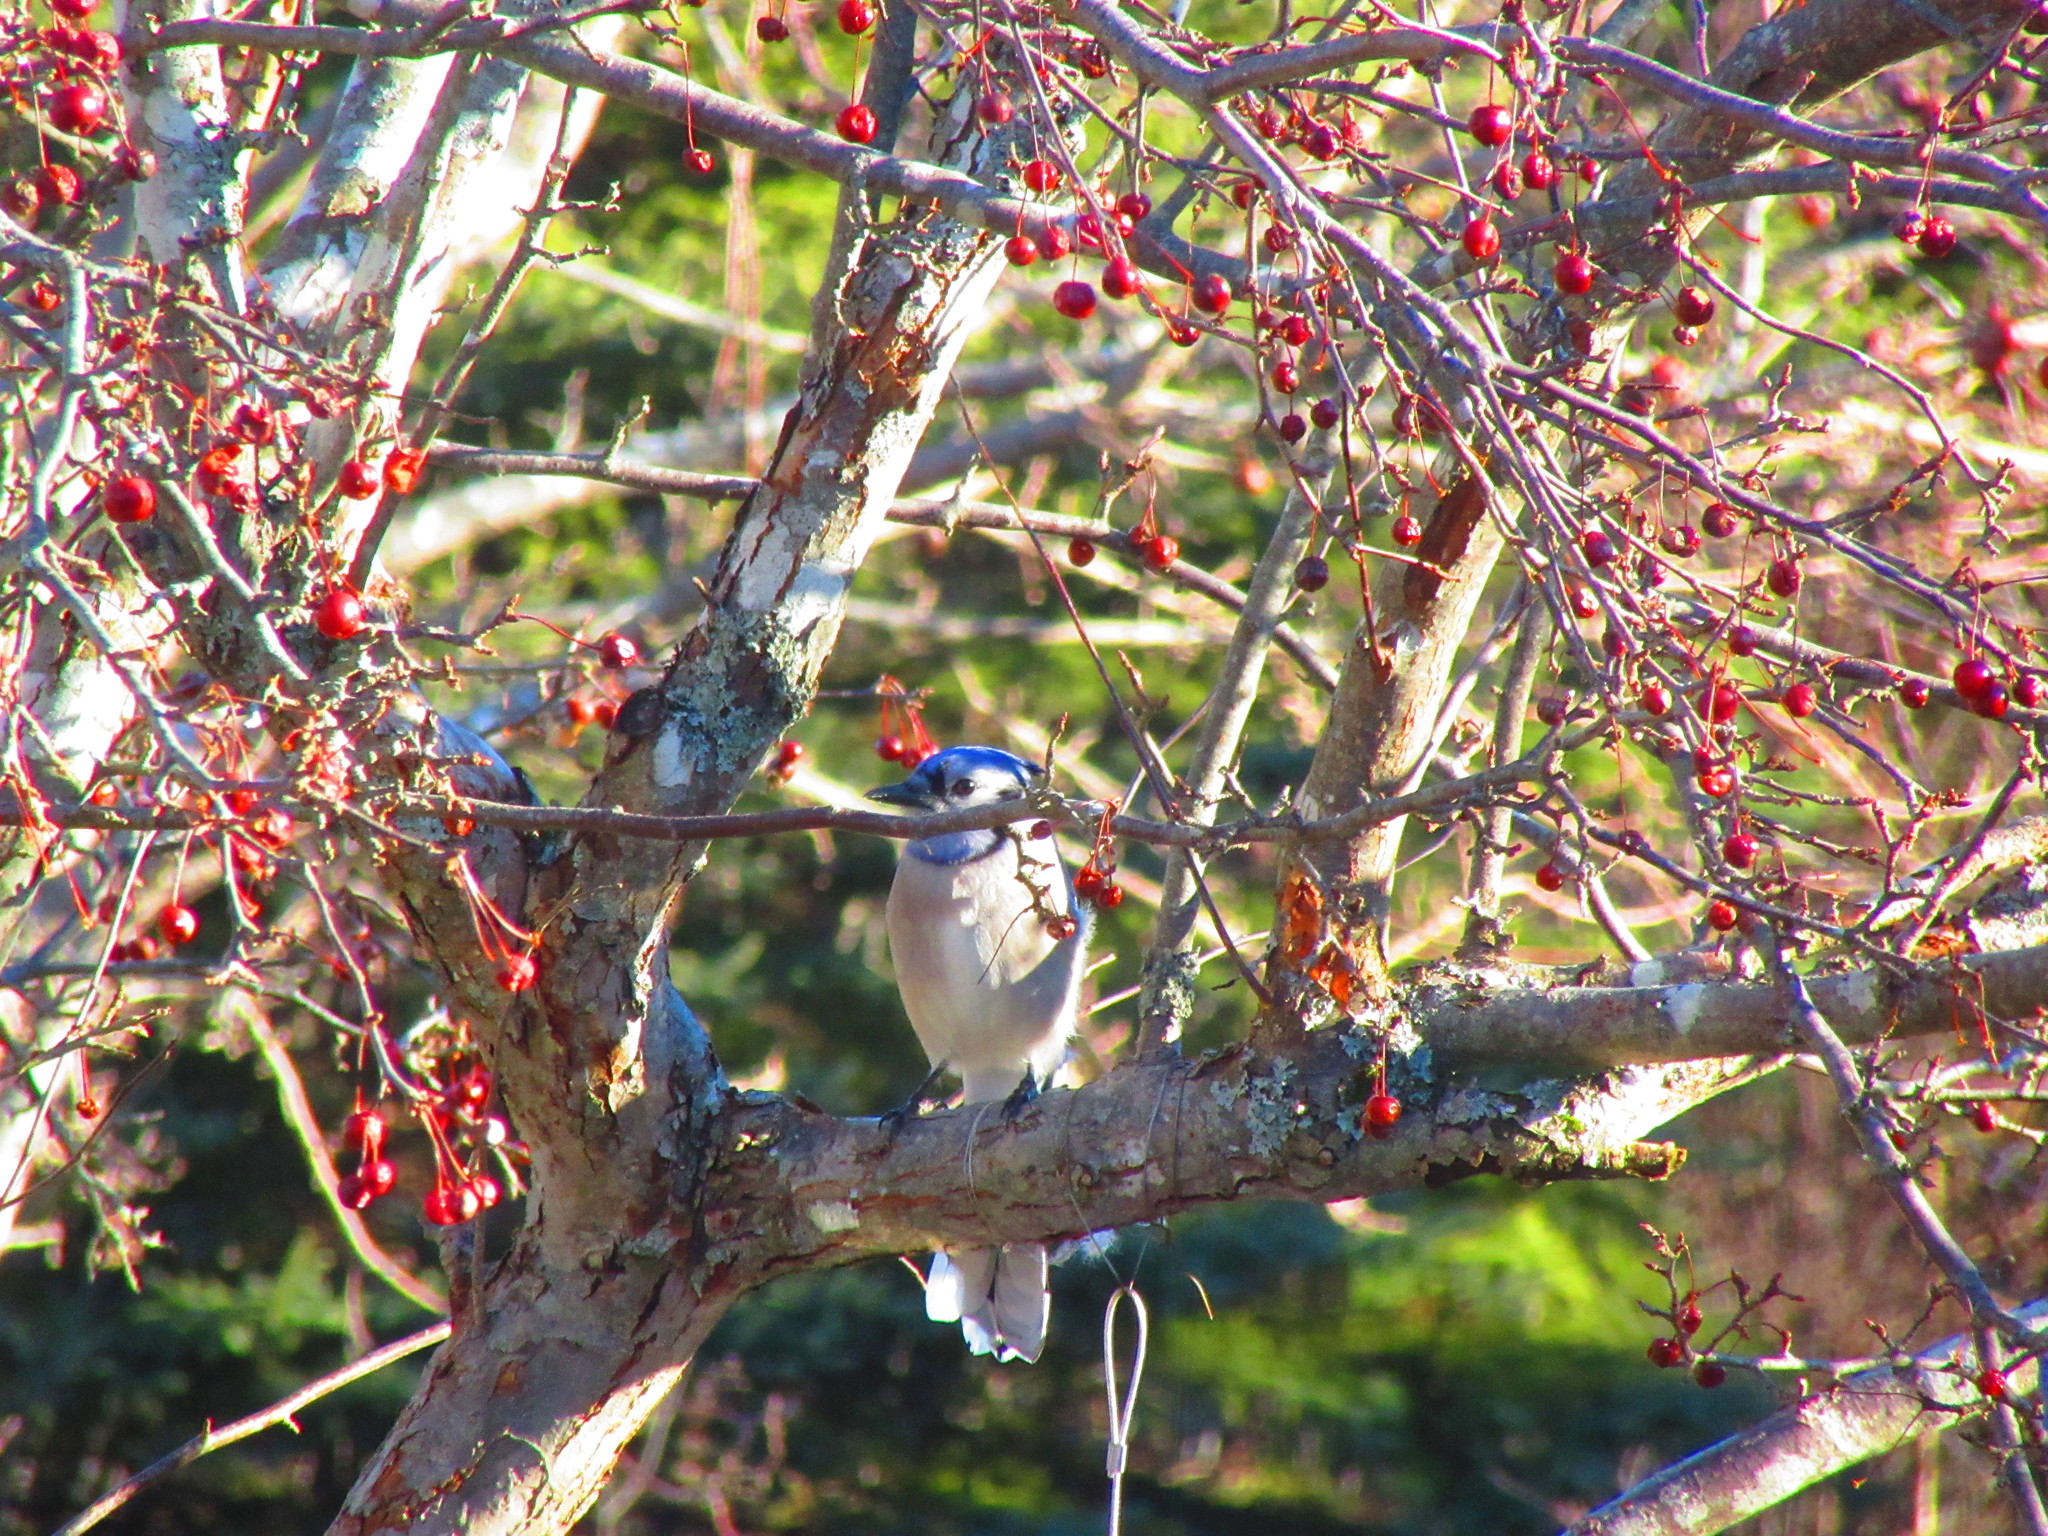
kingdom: Animalia
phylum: Chordata
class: Aves
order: Passeriformes
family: Corvidae
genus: Cyanocitta
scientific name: Cyanocitta cristata
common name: Blue jay
